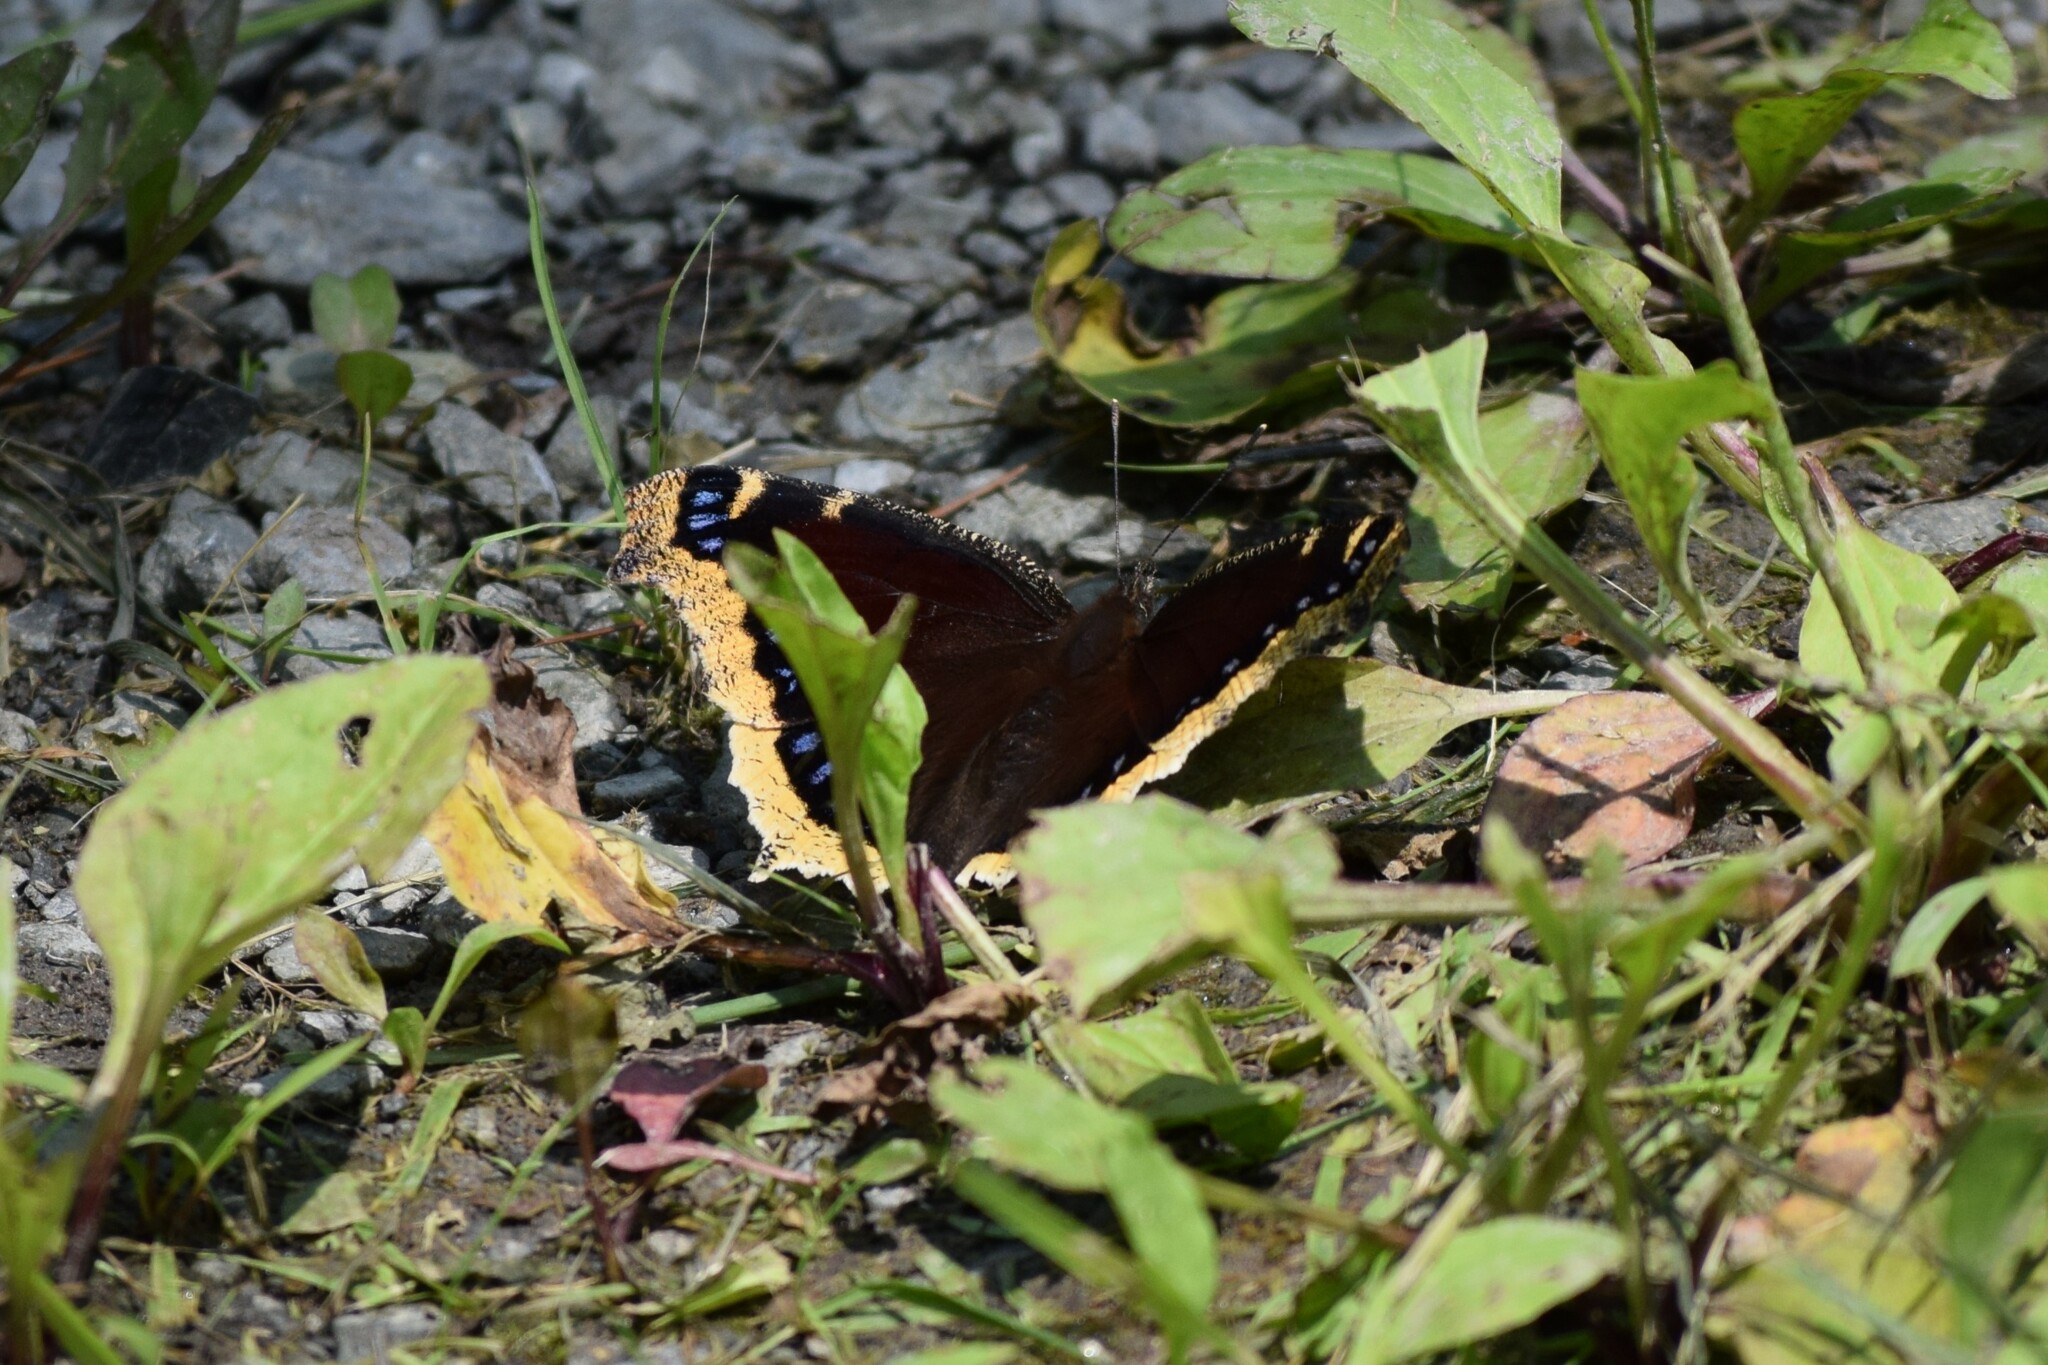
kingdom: Animalia
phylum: Arthropoda
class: Insecta
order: Lepidoptera
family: Nymphalidae
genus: Nymphalis
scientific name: Nymphalis antiopa
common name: Camberwell beauty
